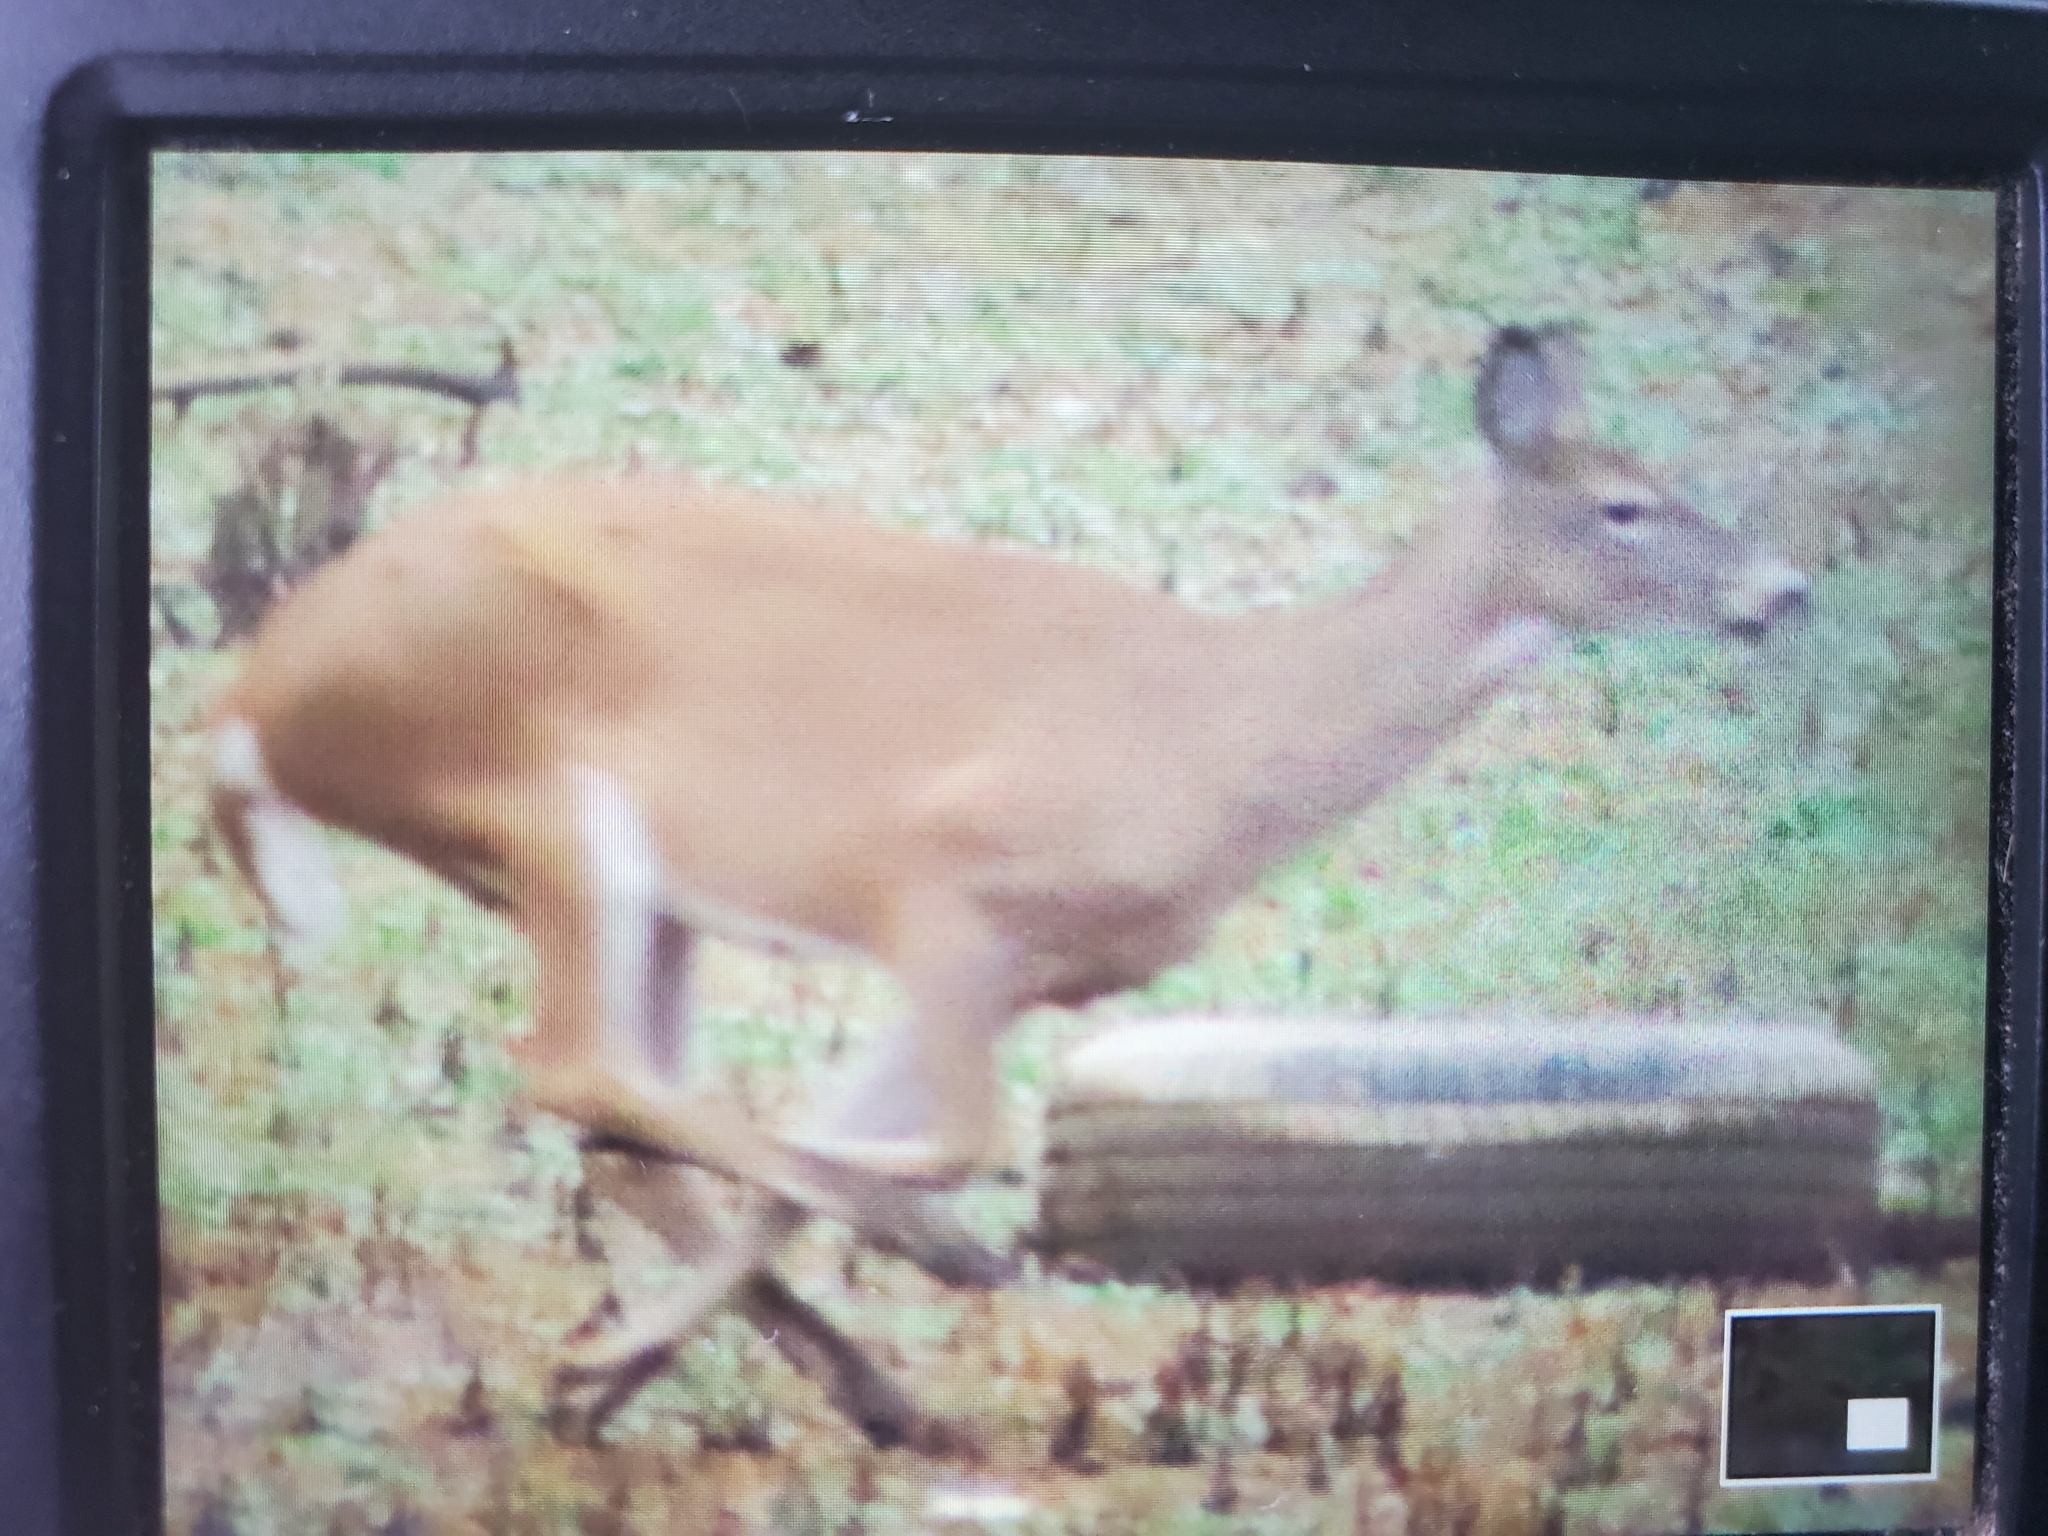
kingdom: Animalia
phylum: Chordata
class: Mammalia
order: Artiodactyla
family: Cervidae
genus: Odocoileus
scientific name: Odocoileus virginianus
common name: White-tailed deer
